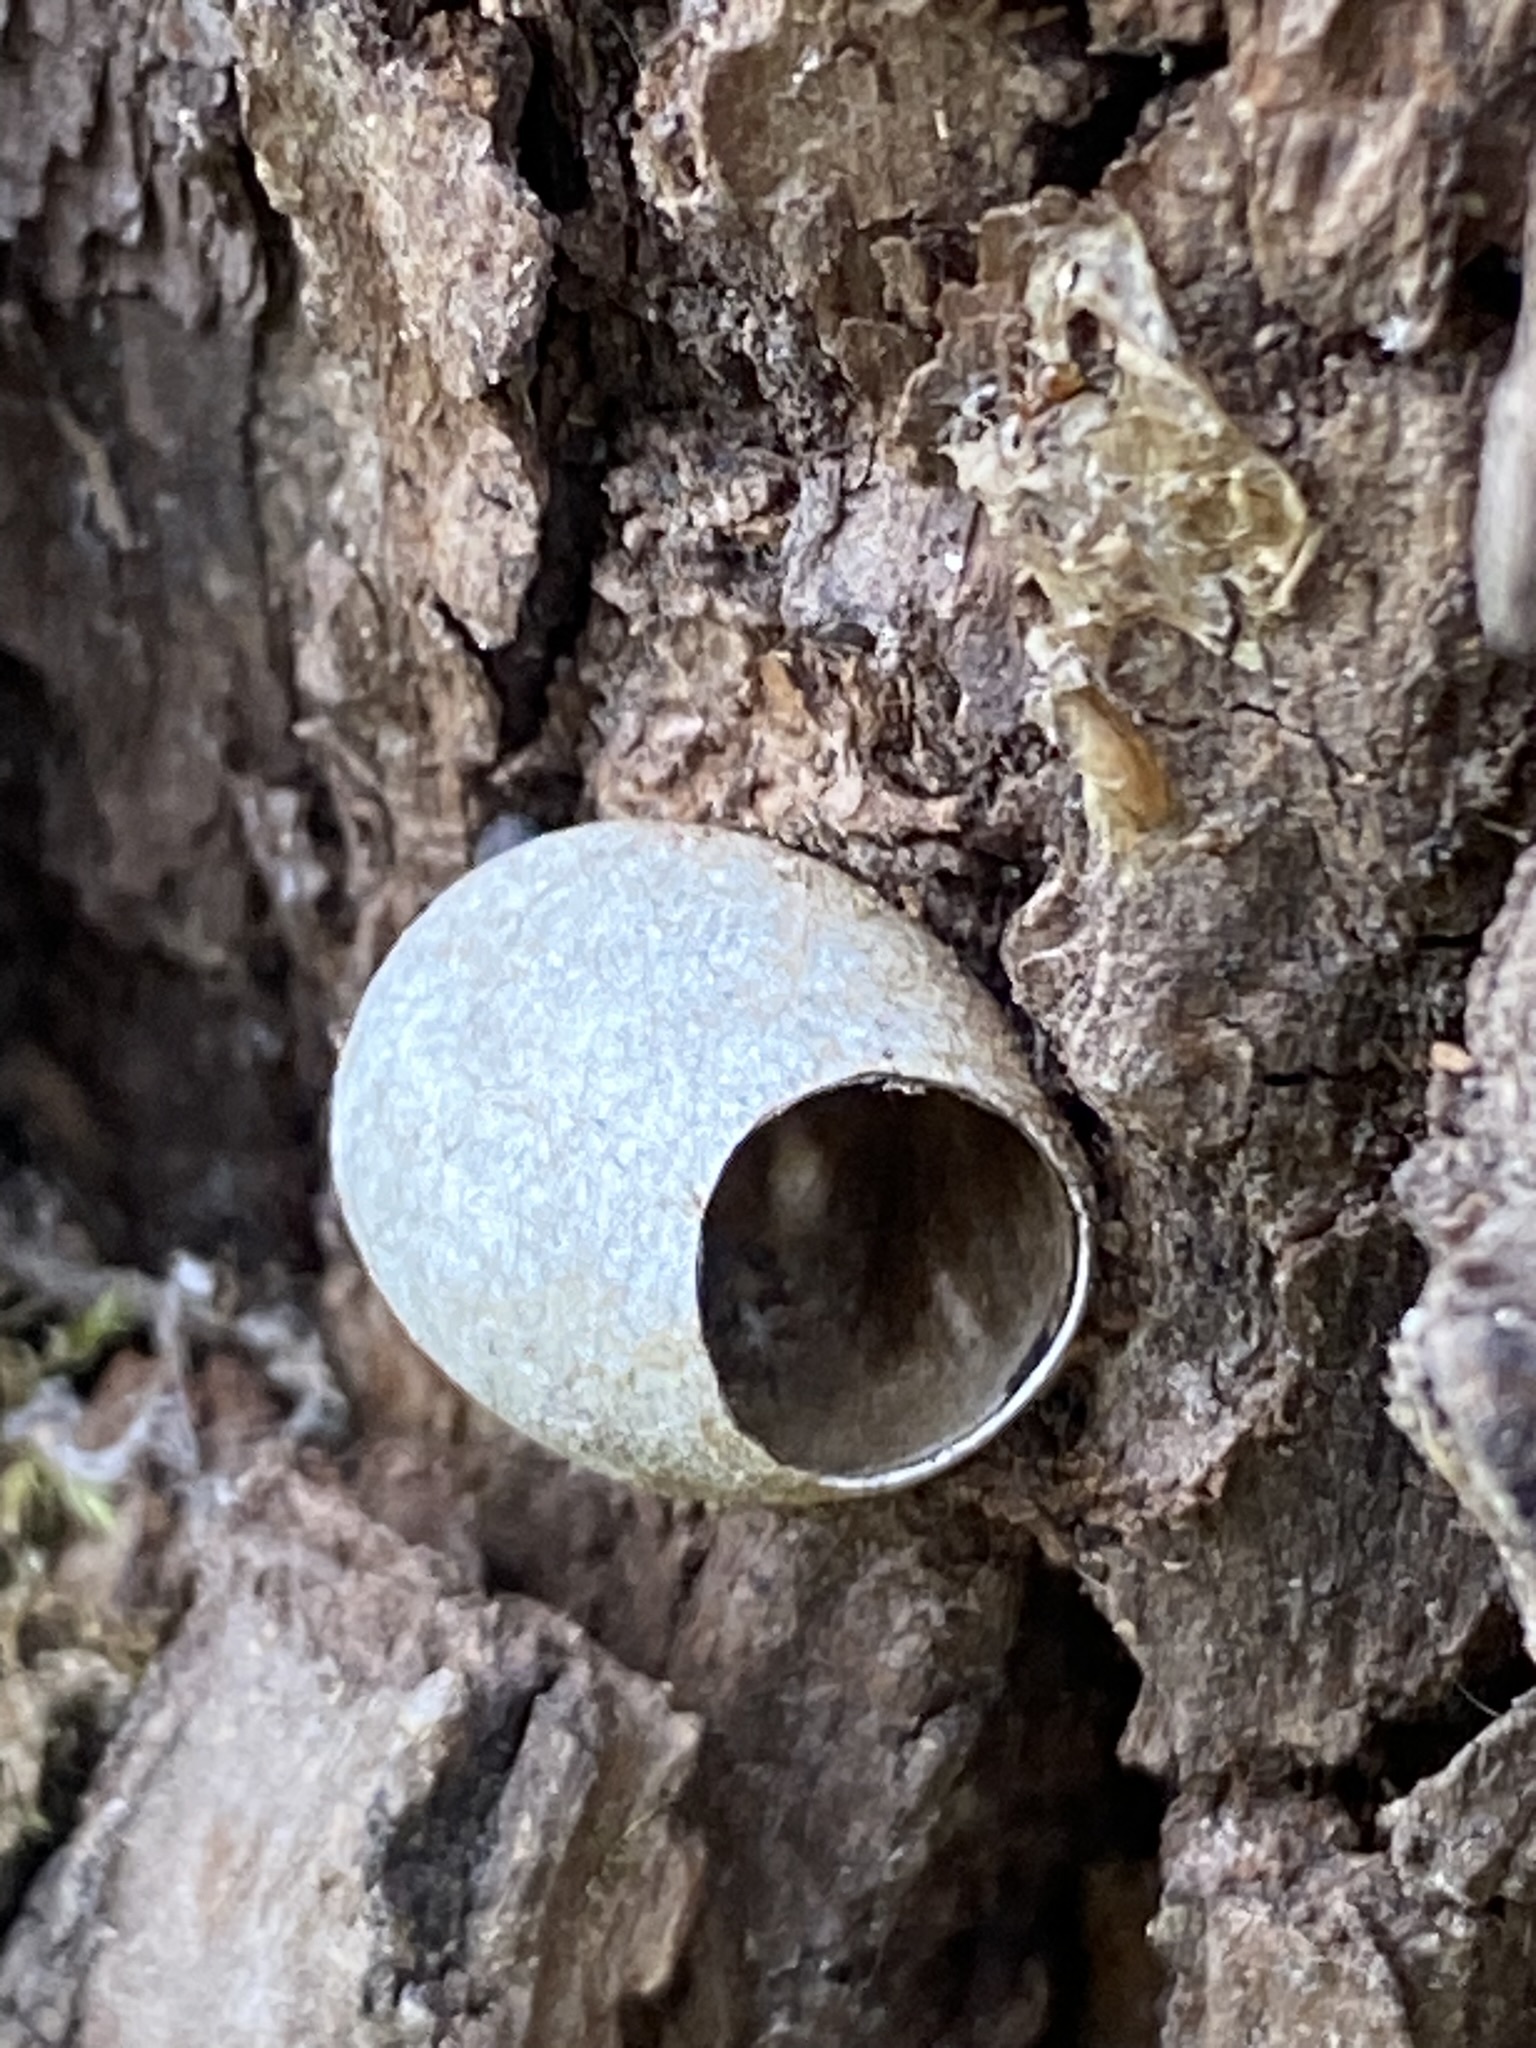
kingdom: Animalia
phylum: Arthropoda
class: Insecta
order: Lepidoptera
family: Limacodidae
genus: Acharia
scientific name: Acharia
